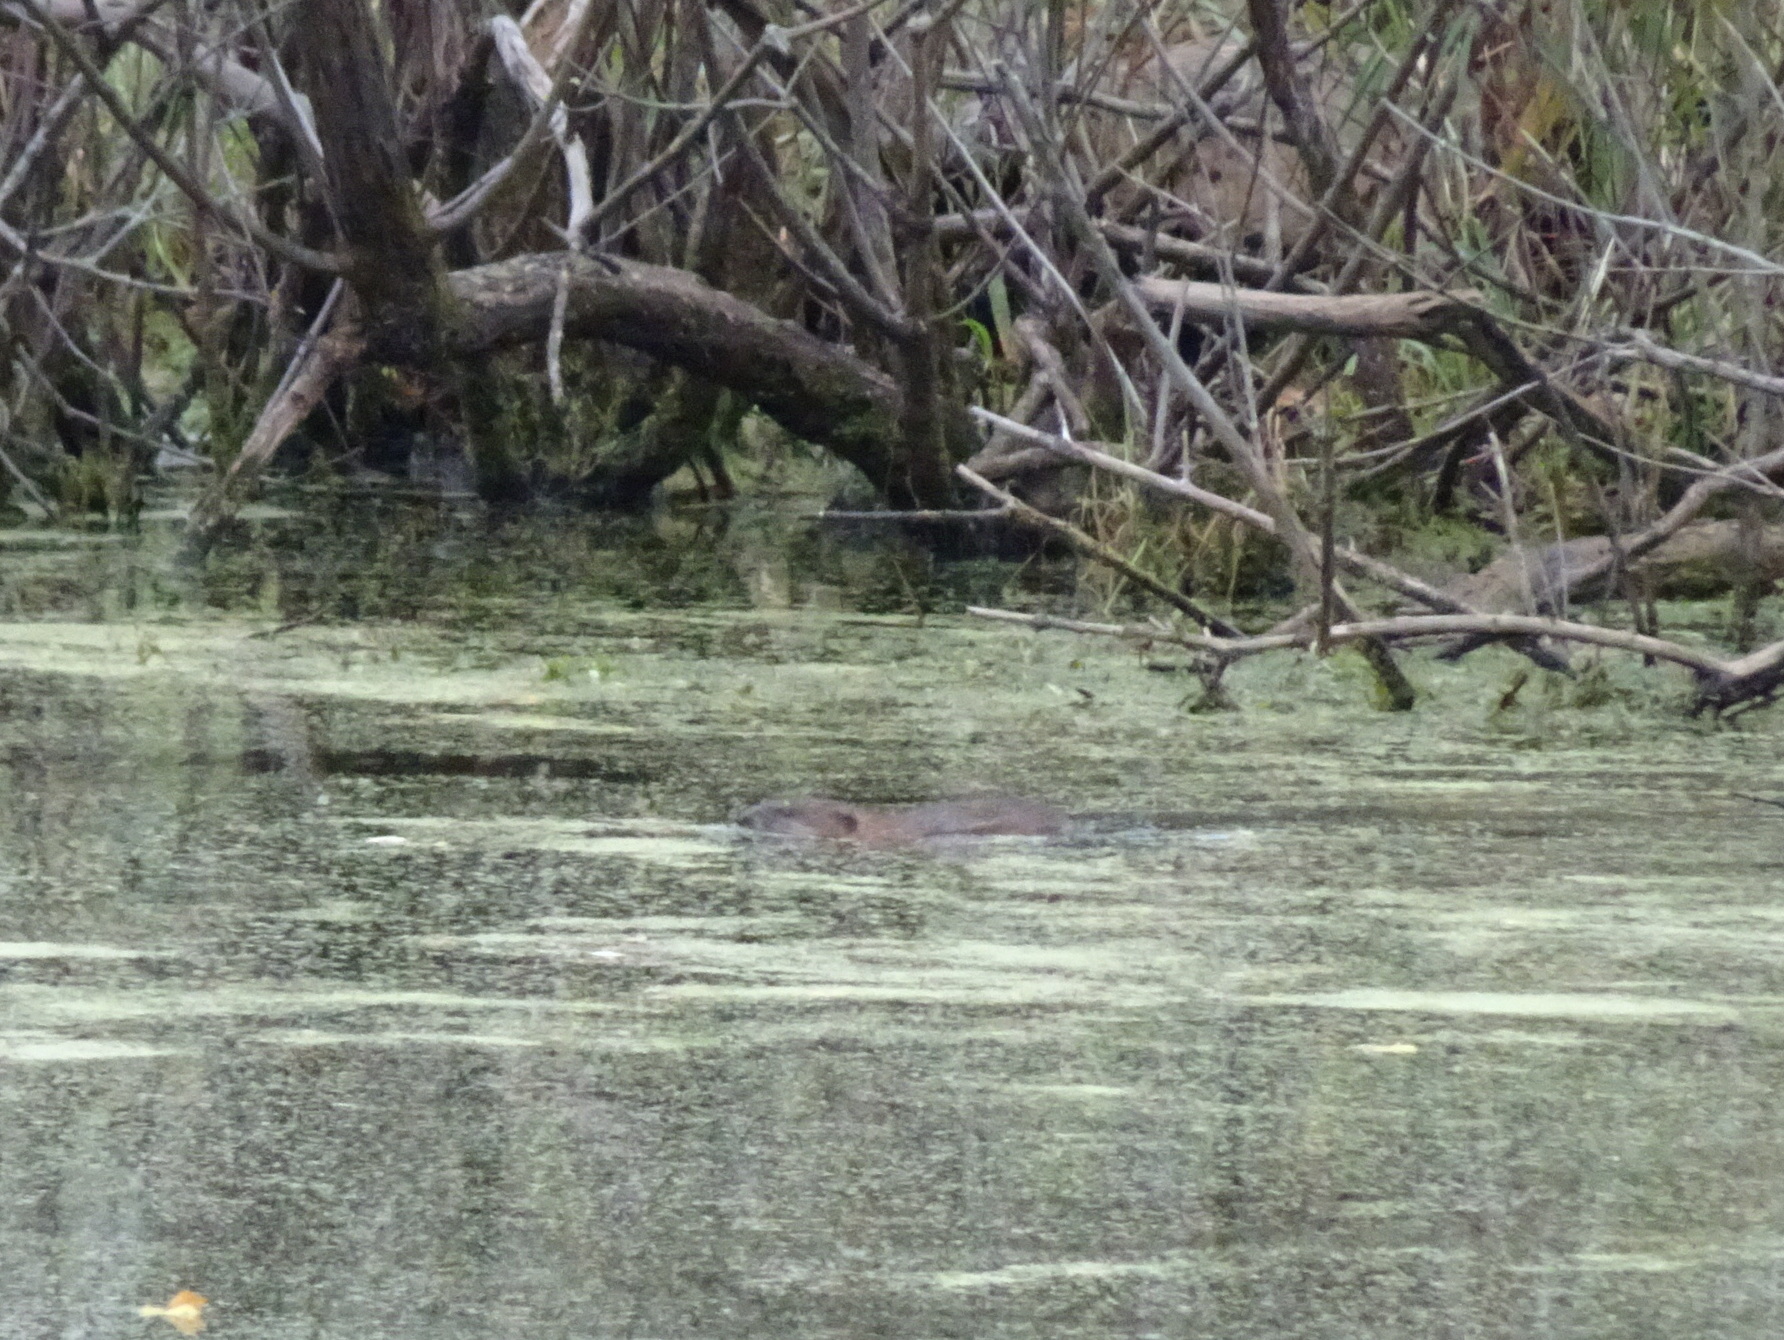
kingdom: Animalia
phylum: Chordata
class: Mammalia
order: Rodentia
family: Cricetidae
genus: Ondatra
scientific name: Ondatra zibethicus
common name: Muskrat
